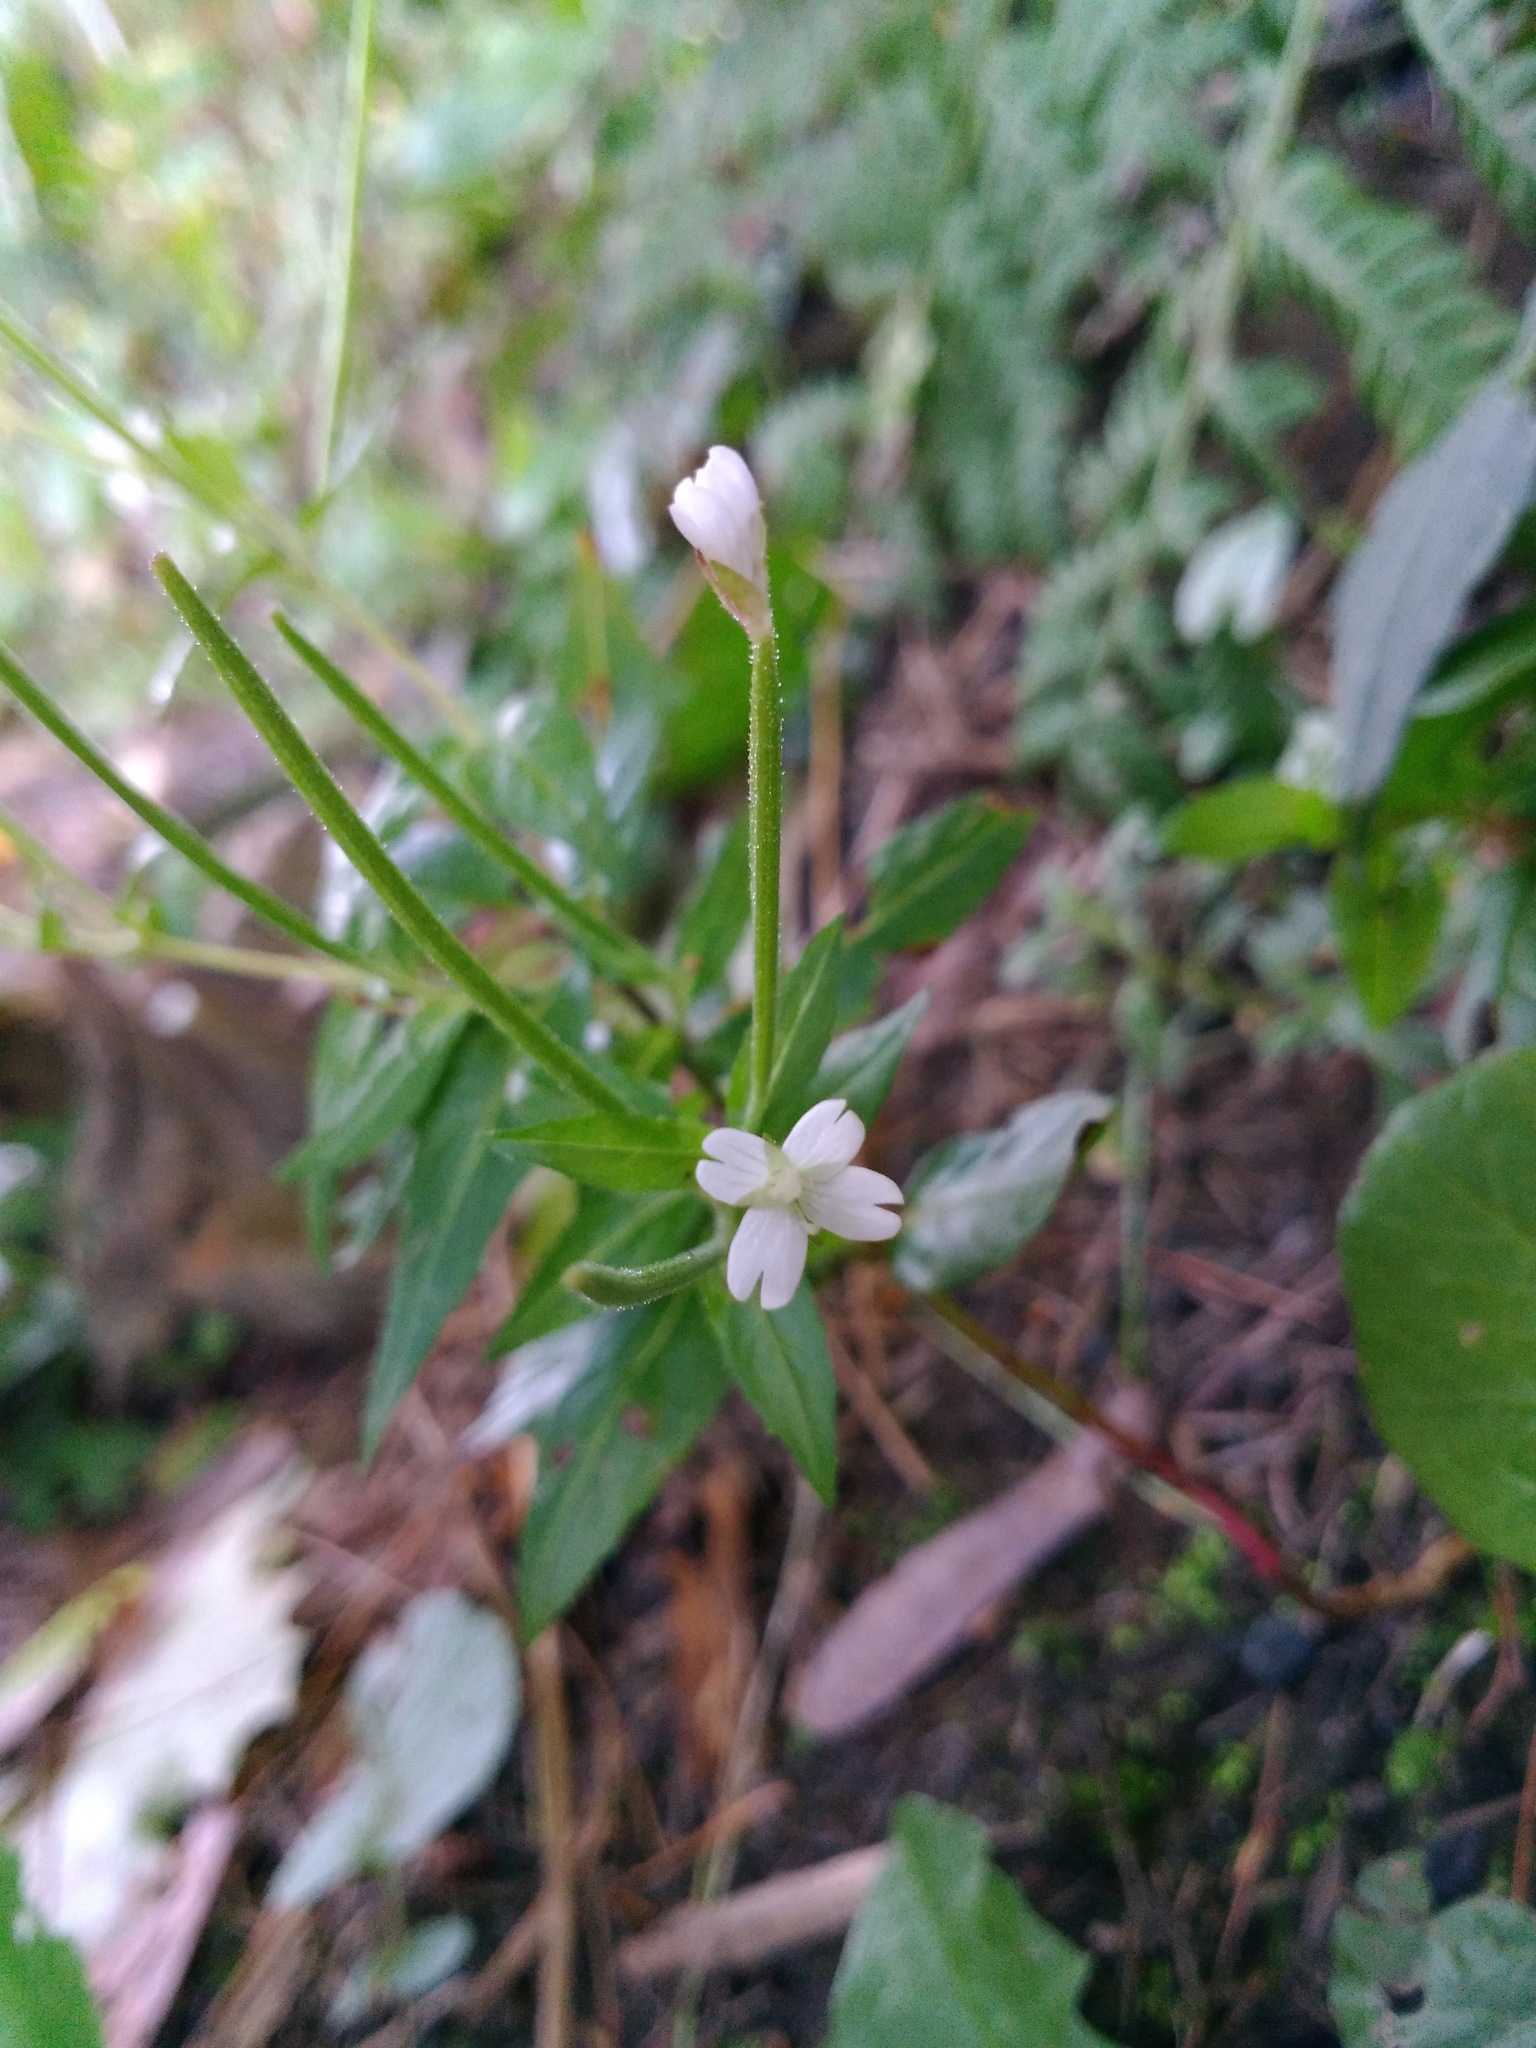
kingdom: Plantae
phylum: Tracheophyta
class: Magnoliopsida
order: Myrtales
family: Onagraceae
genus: Epilobium
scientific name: Epilobium ciliatum
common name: American willowherb
